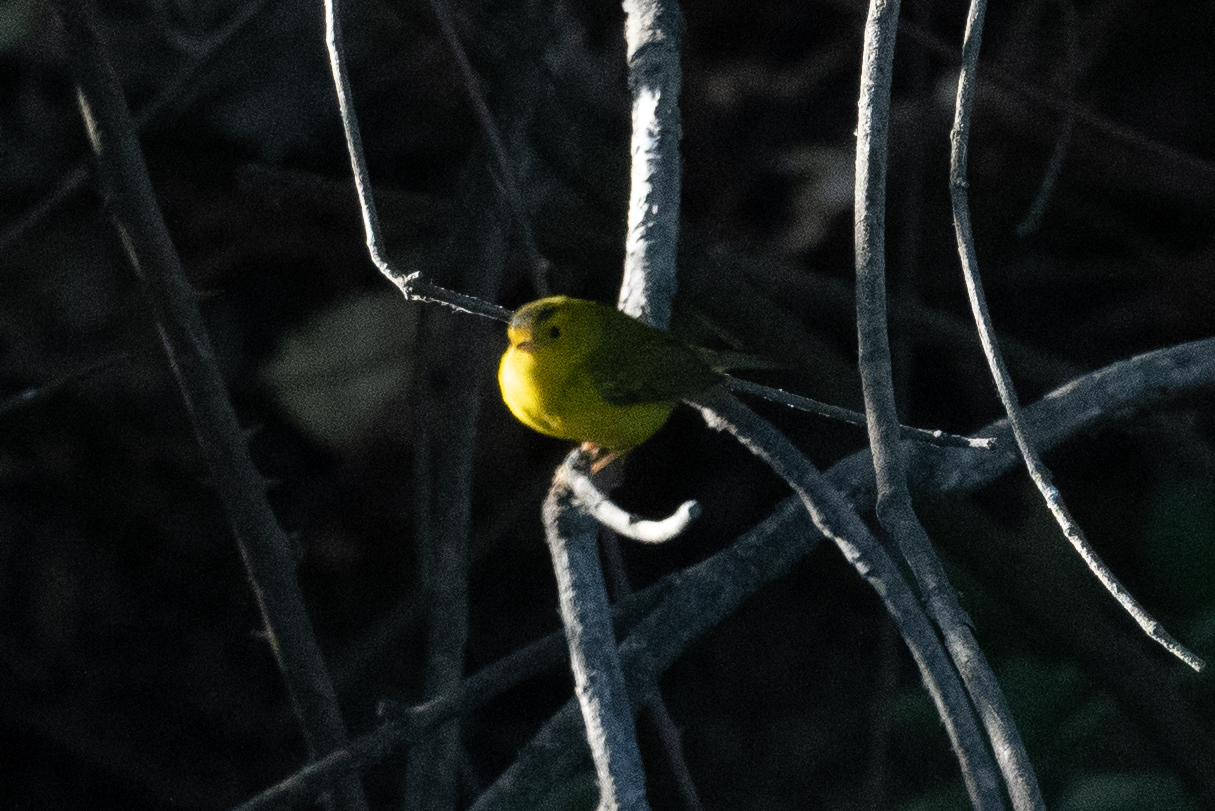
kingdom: Animalia
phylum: Chordata
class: Aves
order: Passeriformes
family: Parulidae
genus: Cardellina
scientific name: Cardellina pusilla
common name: Wilson's warbler
